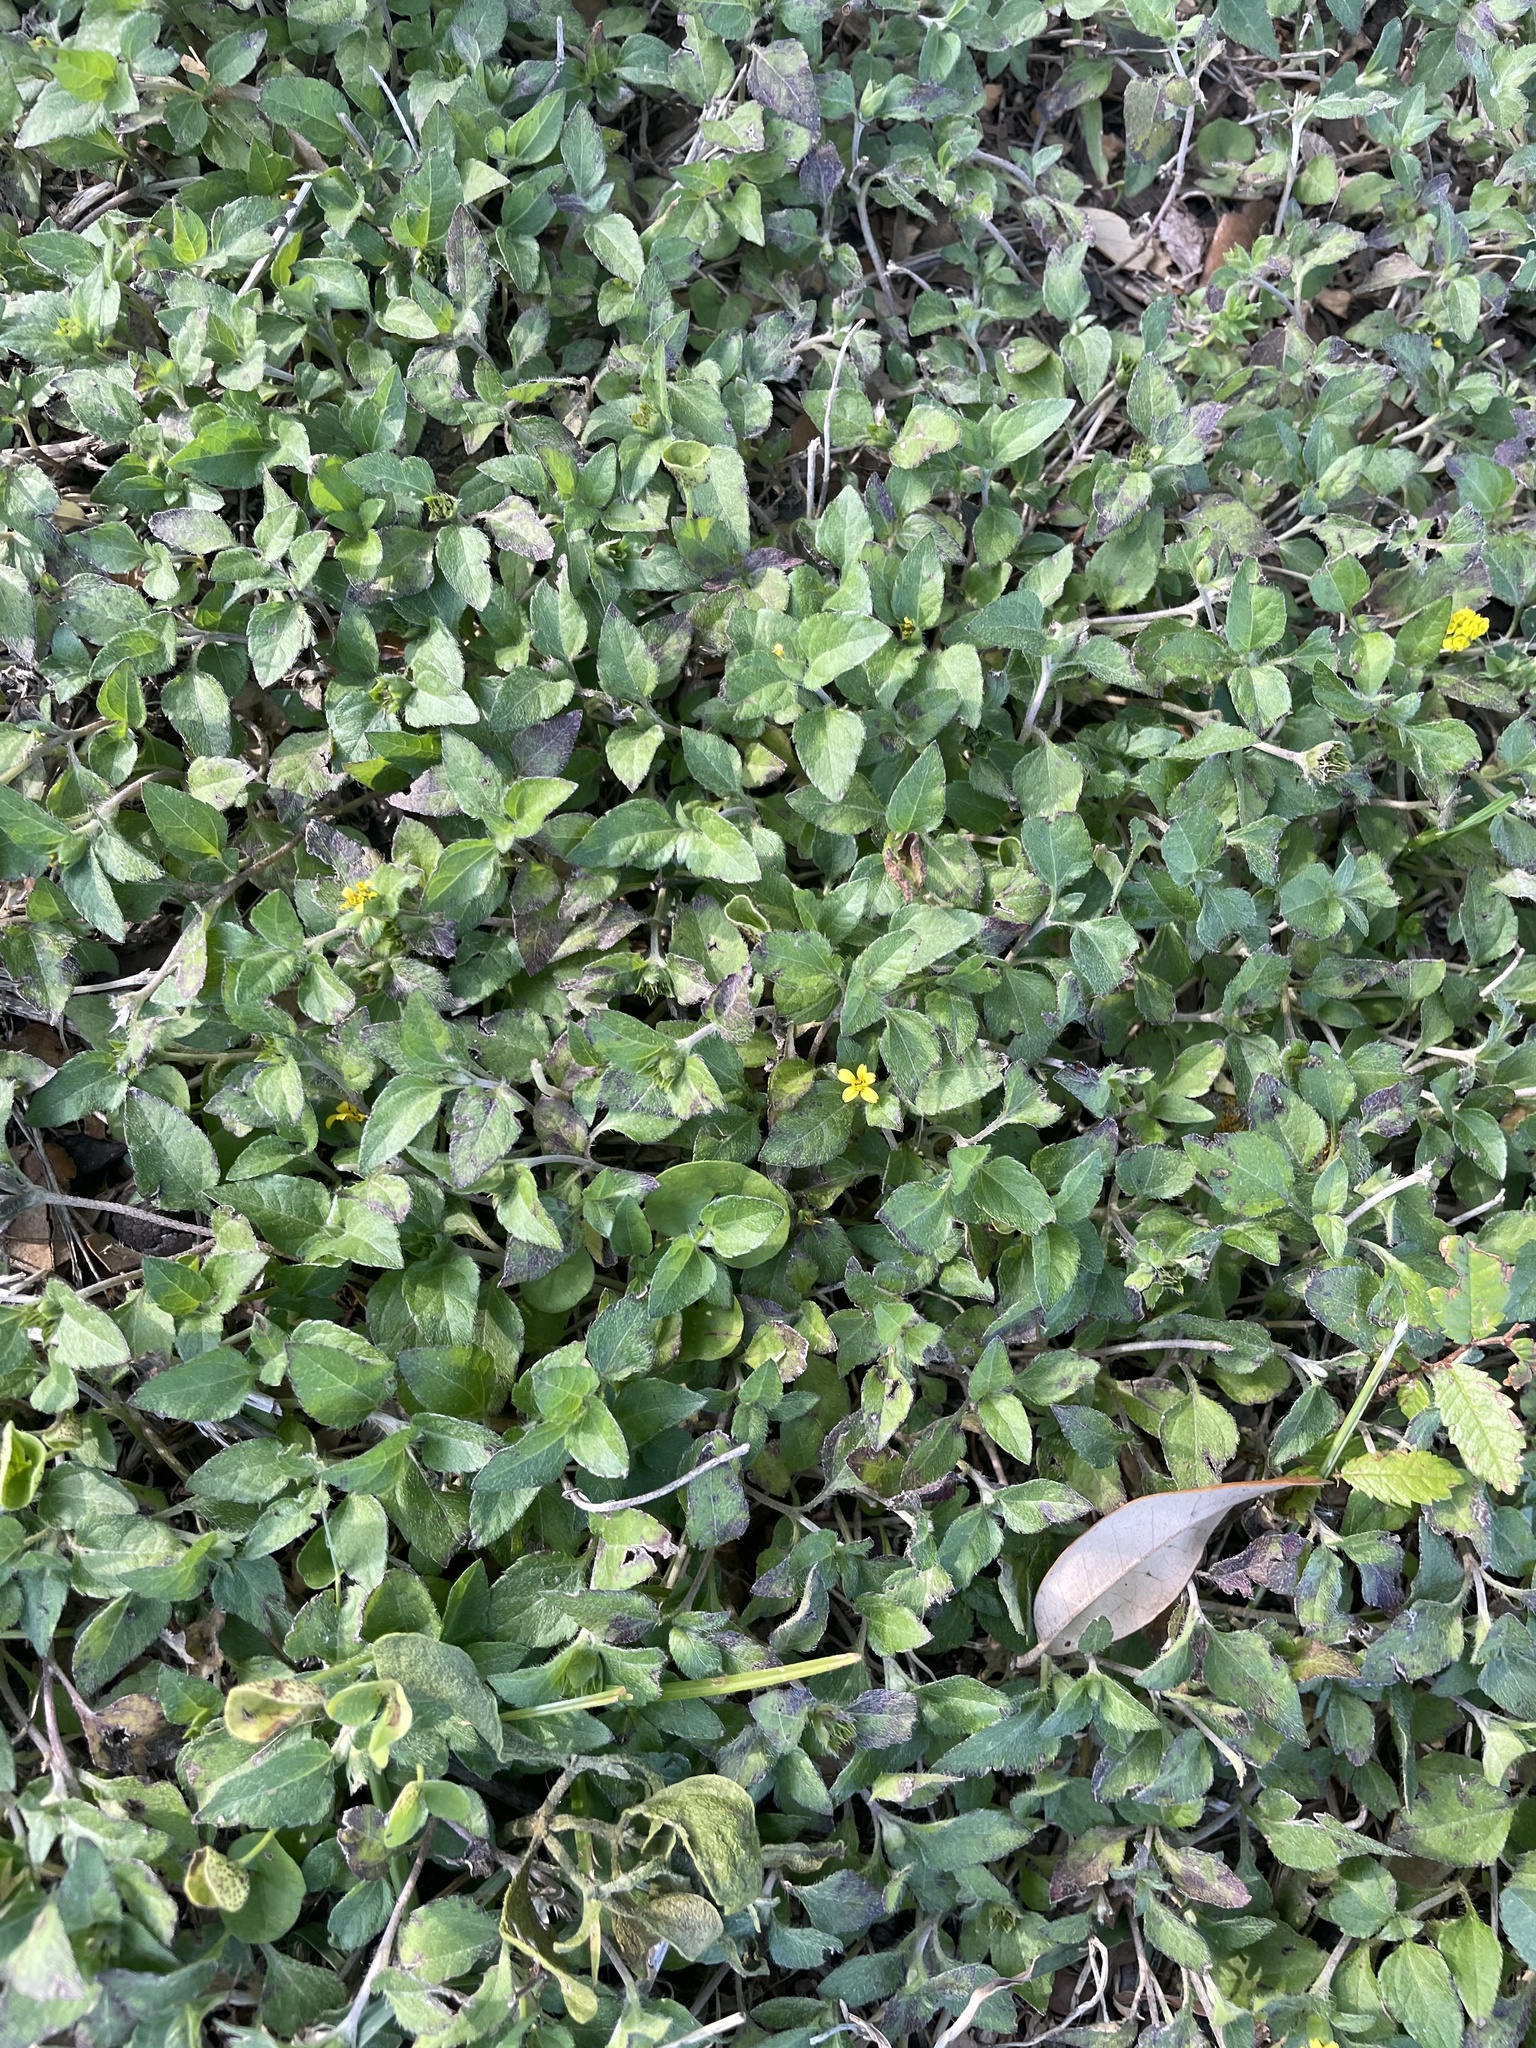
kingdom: Plantae
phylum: Tracheophyta
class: Magnoliopsida
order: Asterales
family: Asteraceae
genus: Calyptocarpus
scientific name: Calyptocarpus vialis
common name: Straggler daisy
